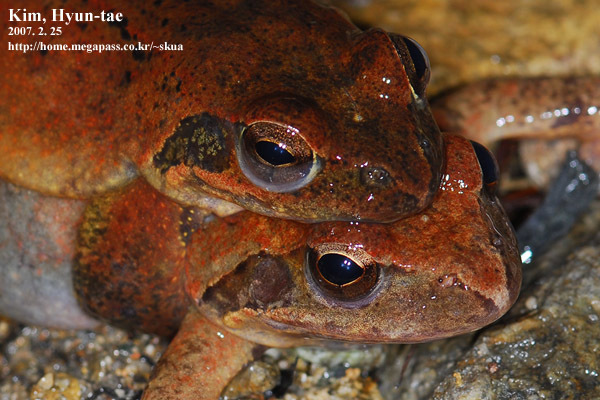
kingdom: Animalia
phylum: Chordata
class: Amphibia
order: Anura
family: Ranidae
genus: Rana
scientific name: Rana huanrenensis
